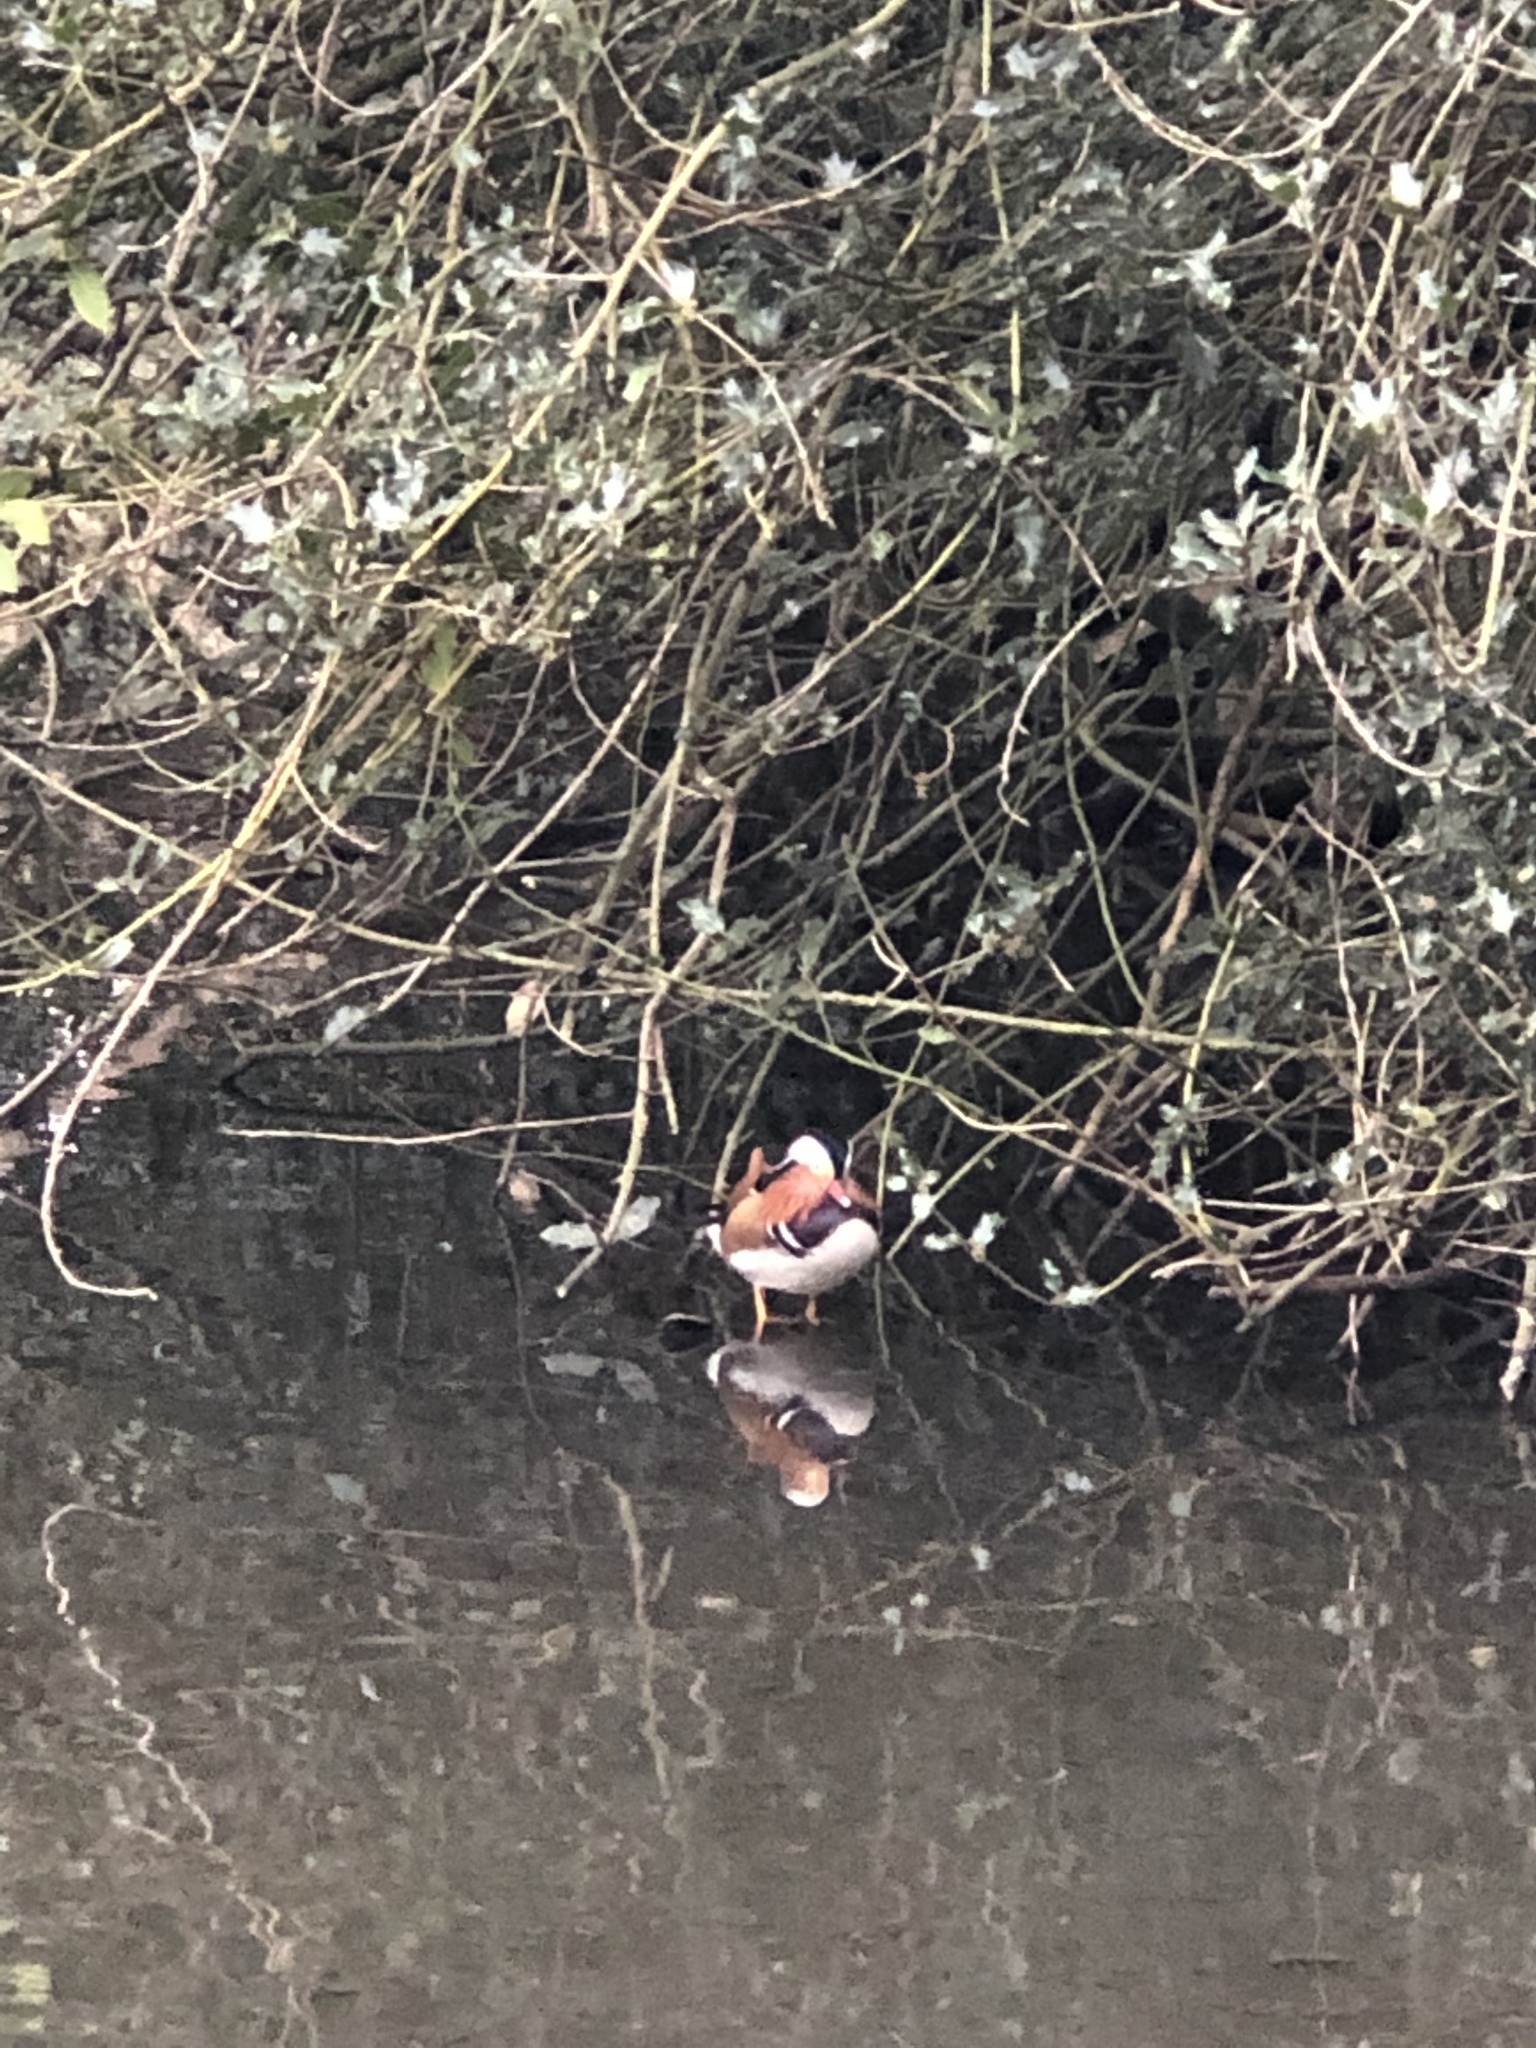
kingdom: Animalia
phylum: Chordata
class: Aves
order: Anseriformes
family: Anatidae
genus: Aix
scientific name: Aix galericulata
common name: Mandarin duck
